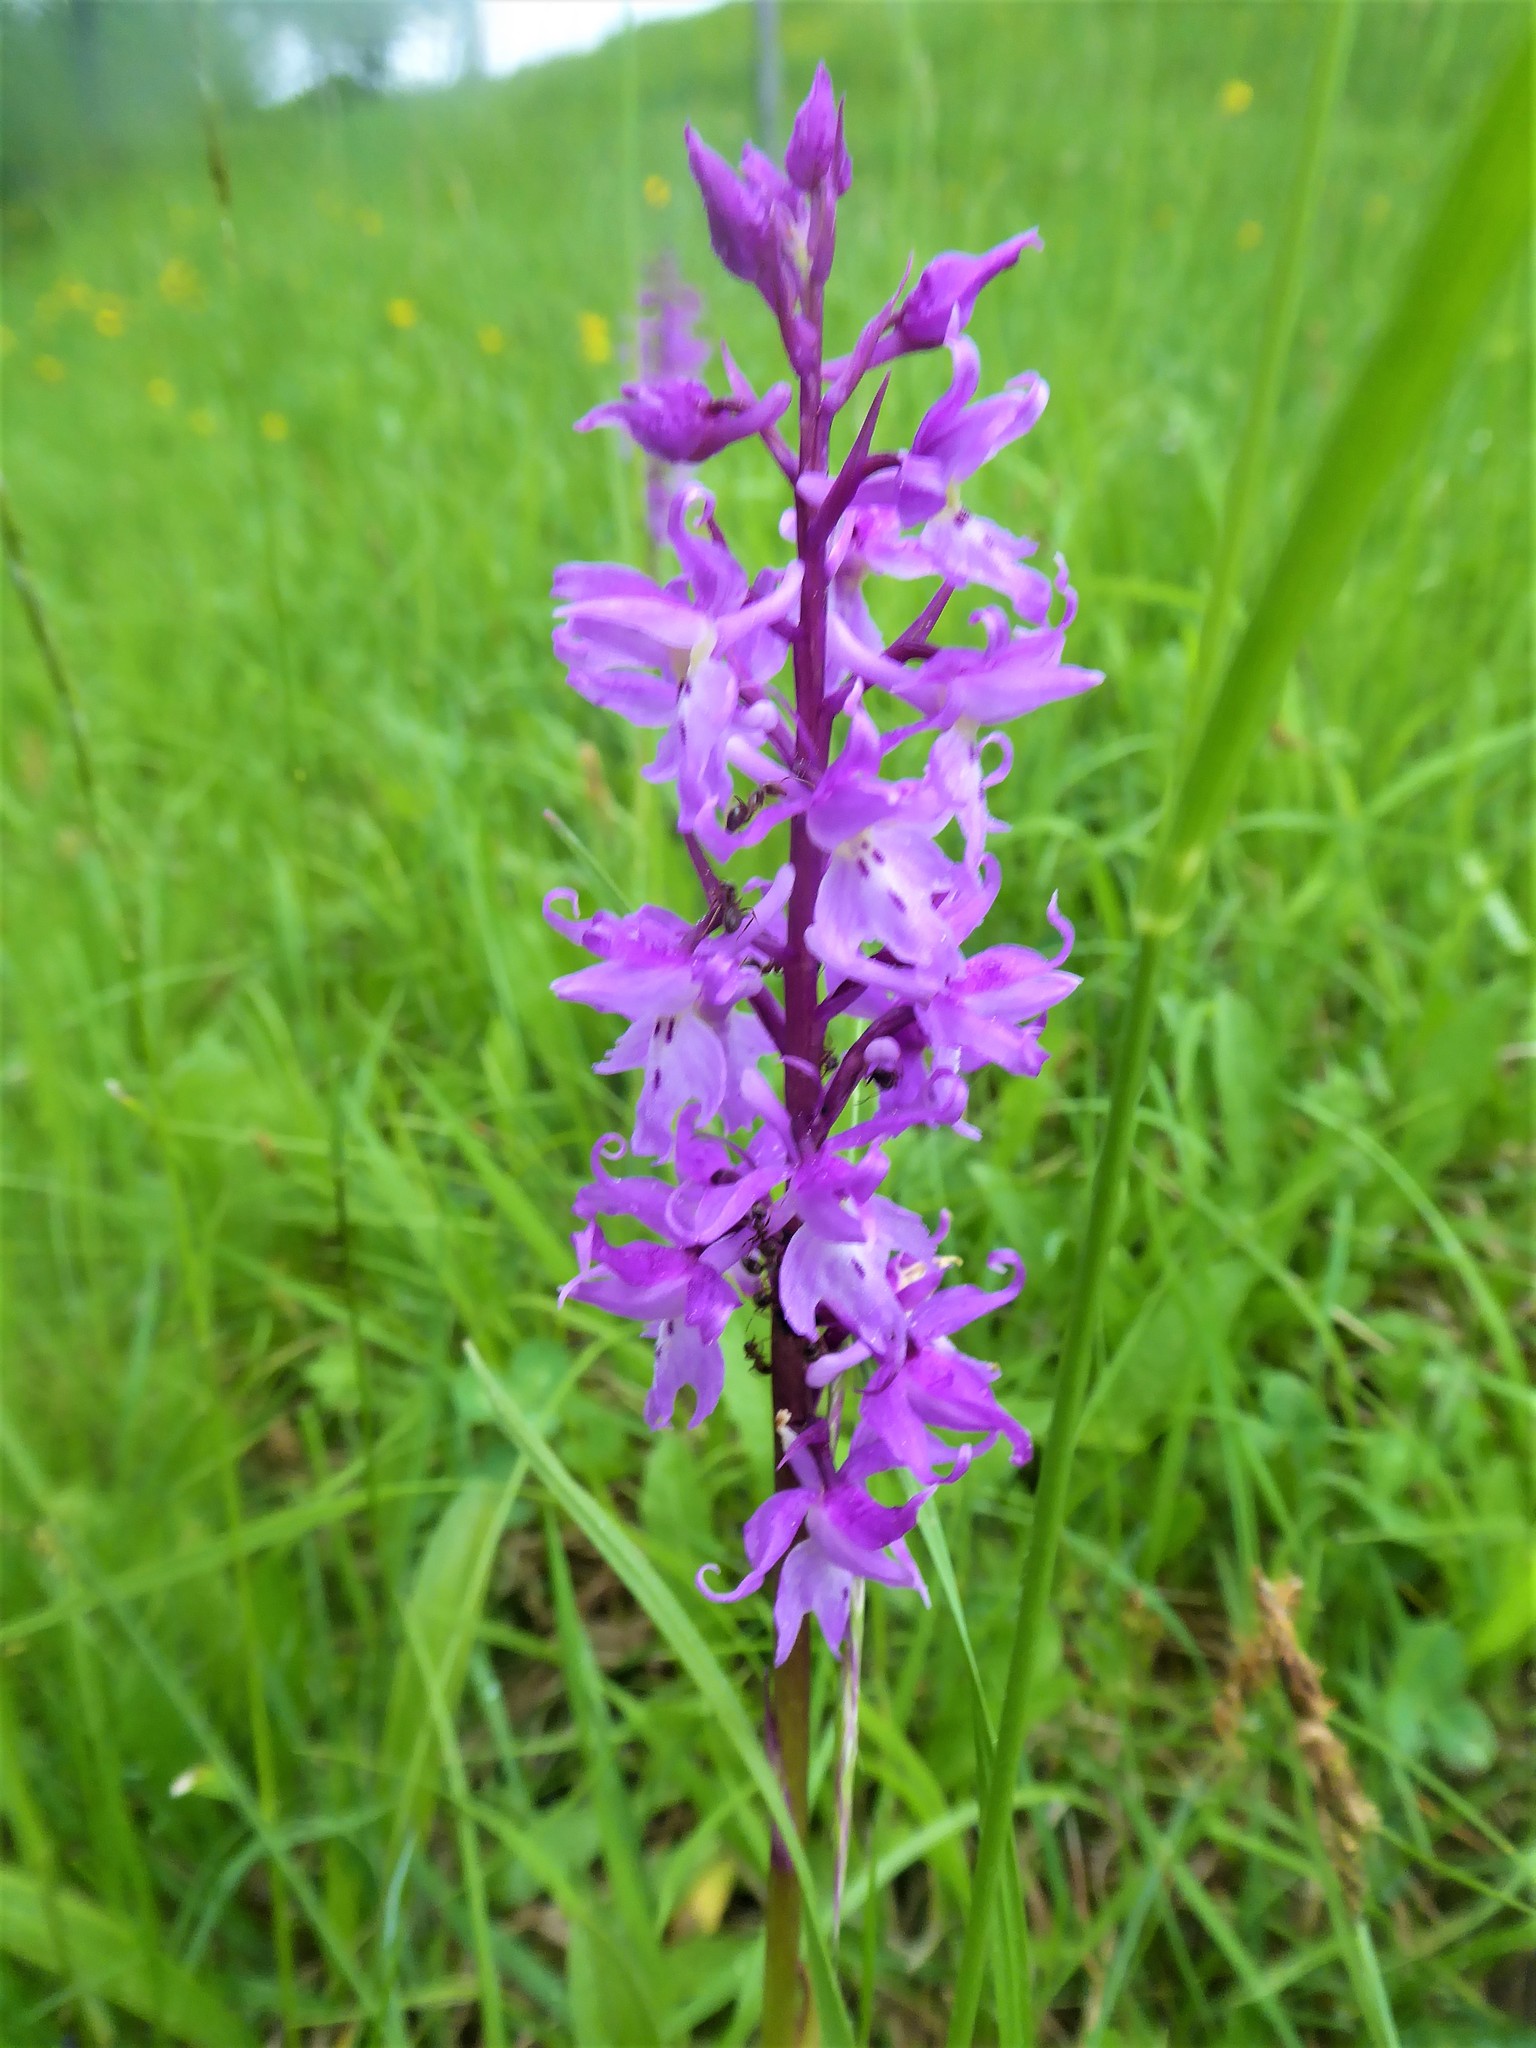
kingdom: Plantae
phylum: Tracheophyta
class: Liliopsida
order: Asparagales
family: Orchidaceae
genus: Orchis
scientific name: Orchis mascula
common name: Early-purple orchid
